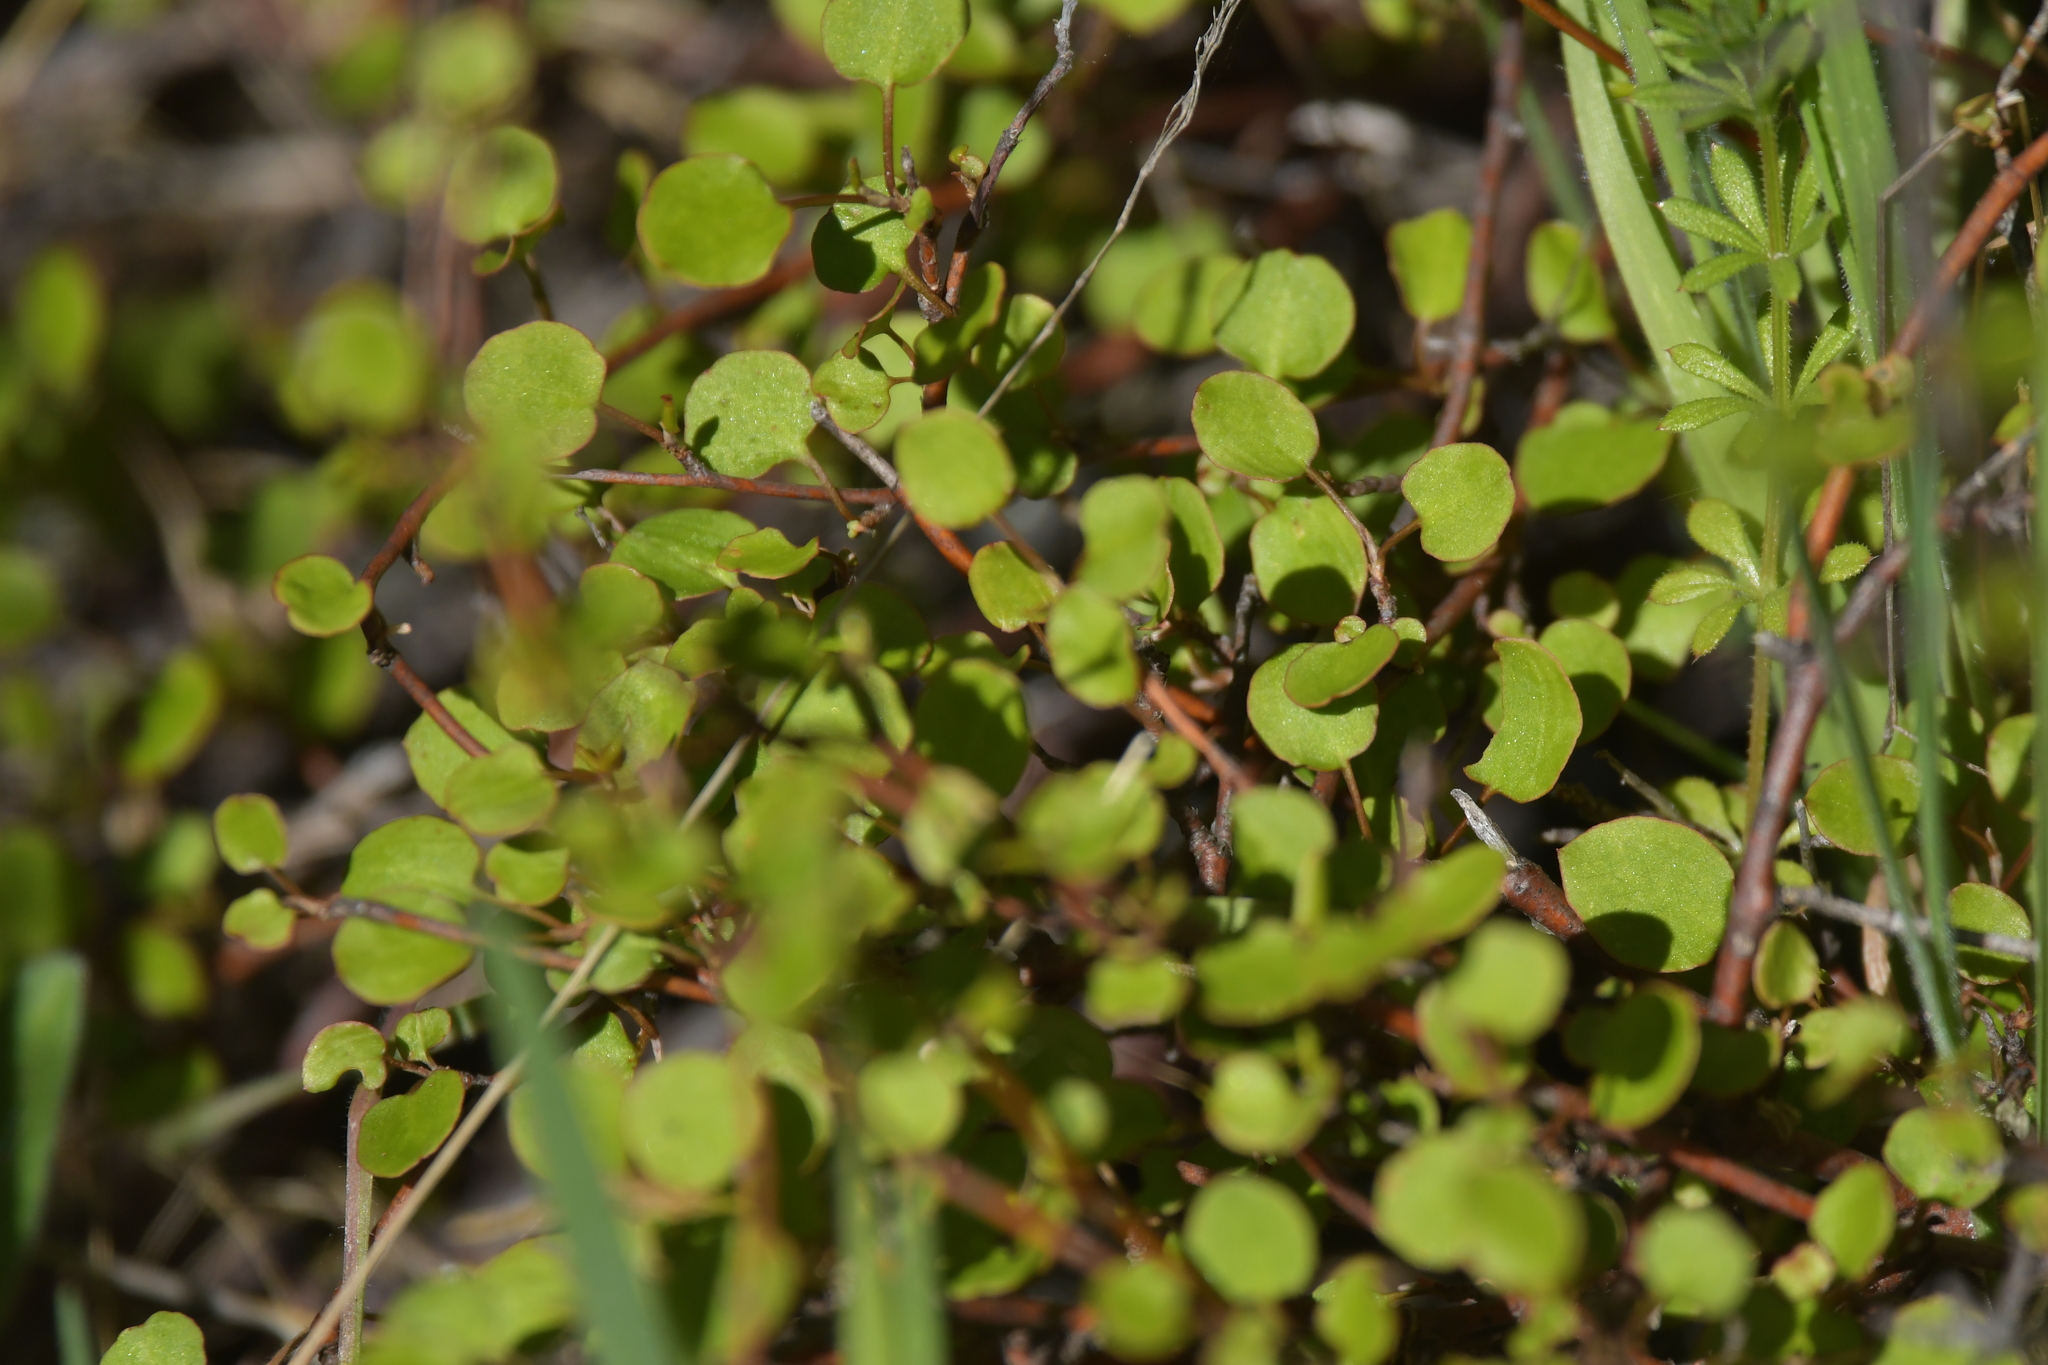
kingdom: Plantae
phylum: Tracheophyta
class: Magnoliopsida
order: Caryophyllales
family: Polygonaceae
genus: Muehlenbeckia
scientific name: Muehlenbeckia complexa
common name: Wireplant
